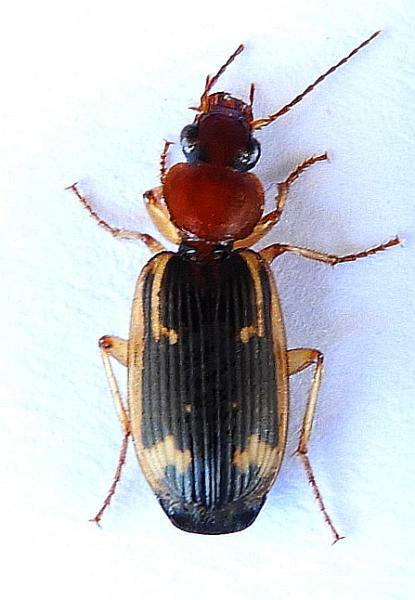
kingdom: Animalia
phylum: Arthropoda
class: Insecta
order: Coleoptera
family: Carabidae
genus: Apenes
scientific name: Apenes hilariola
